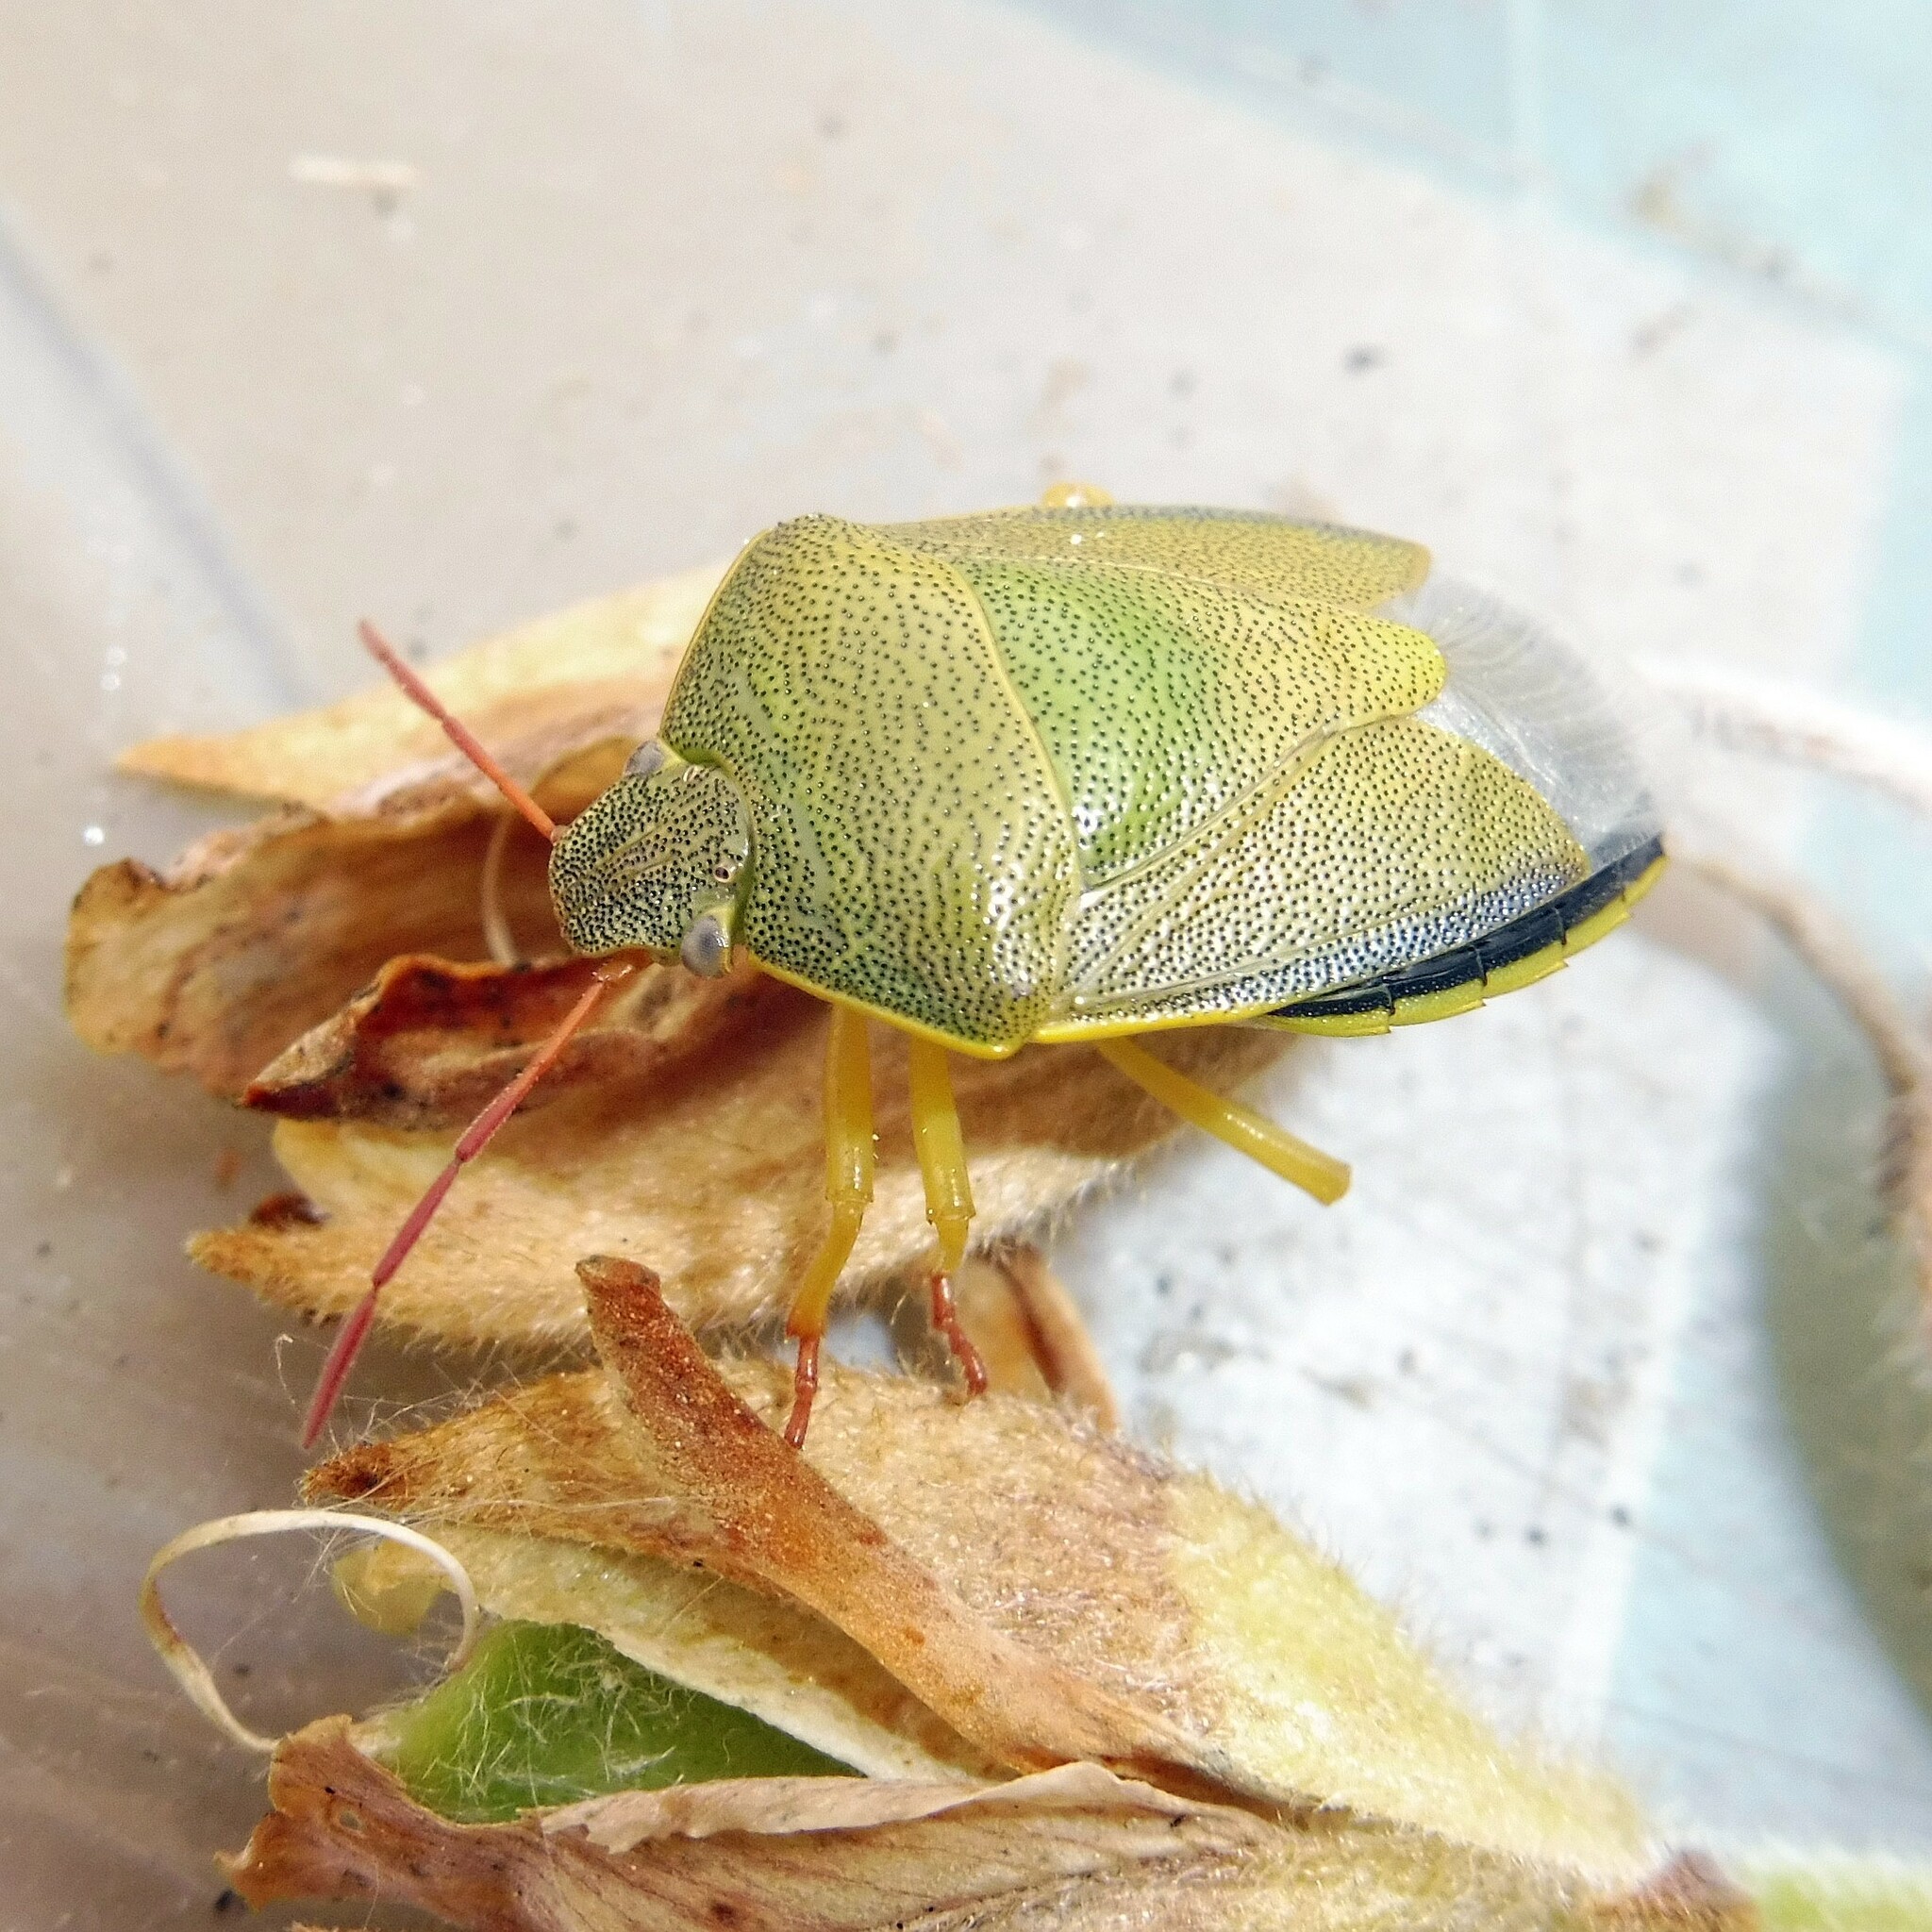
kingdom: Animalia
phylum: Arthropoda
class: Insecta
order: Hemiptera
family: Pentatomidae
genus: Piezodorus
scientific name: Piezodorus lituratus
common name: Stink bug
